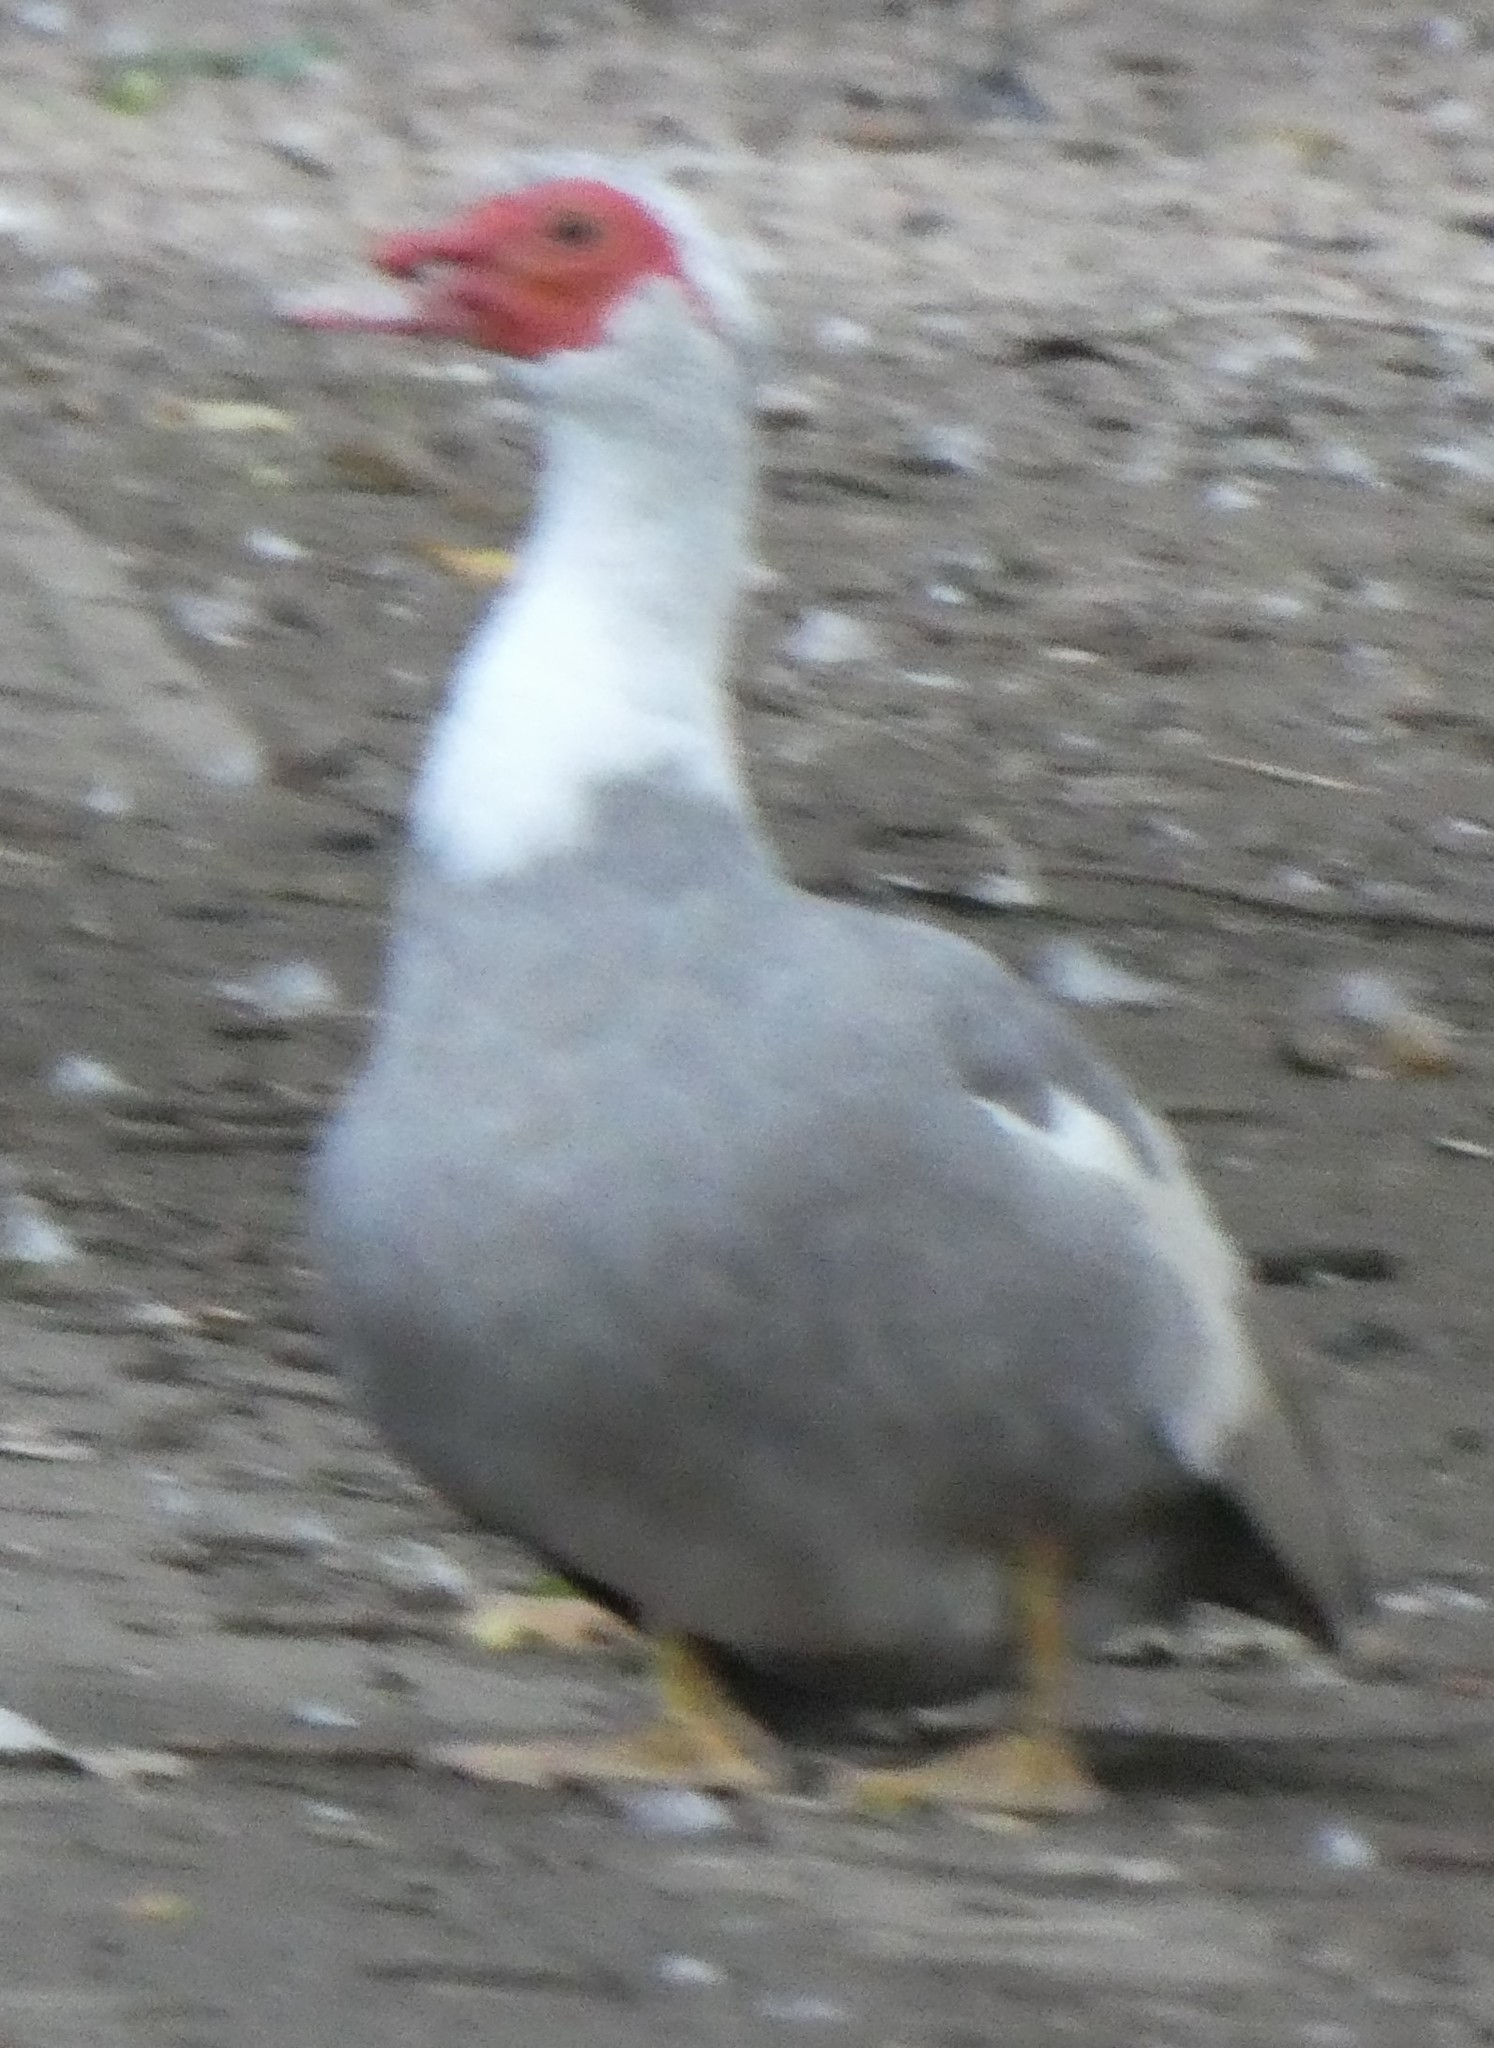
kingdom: Animalia
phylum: Chordata
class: Aves
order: Anseriformes
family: Anatidae
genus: Cairina
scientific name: Cairina moschata
